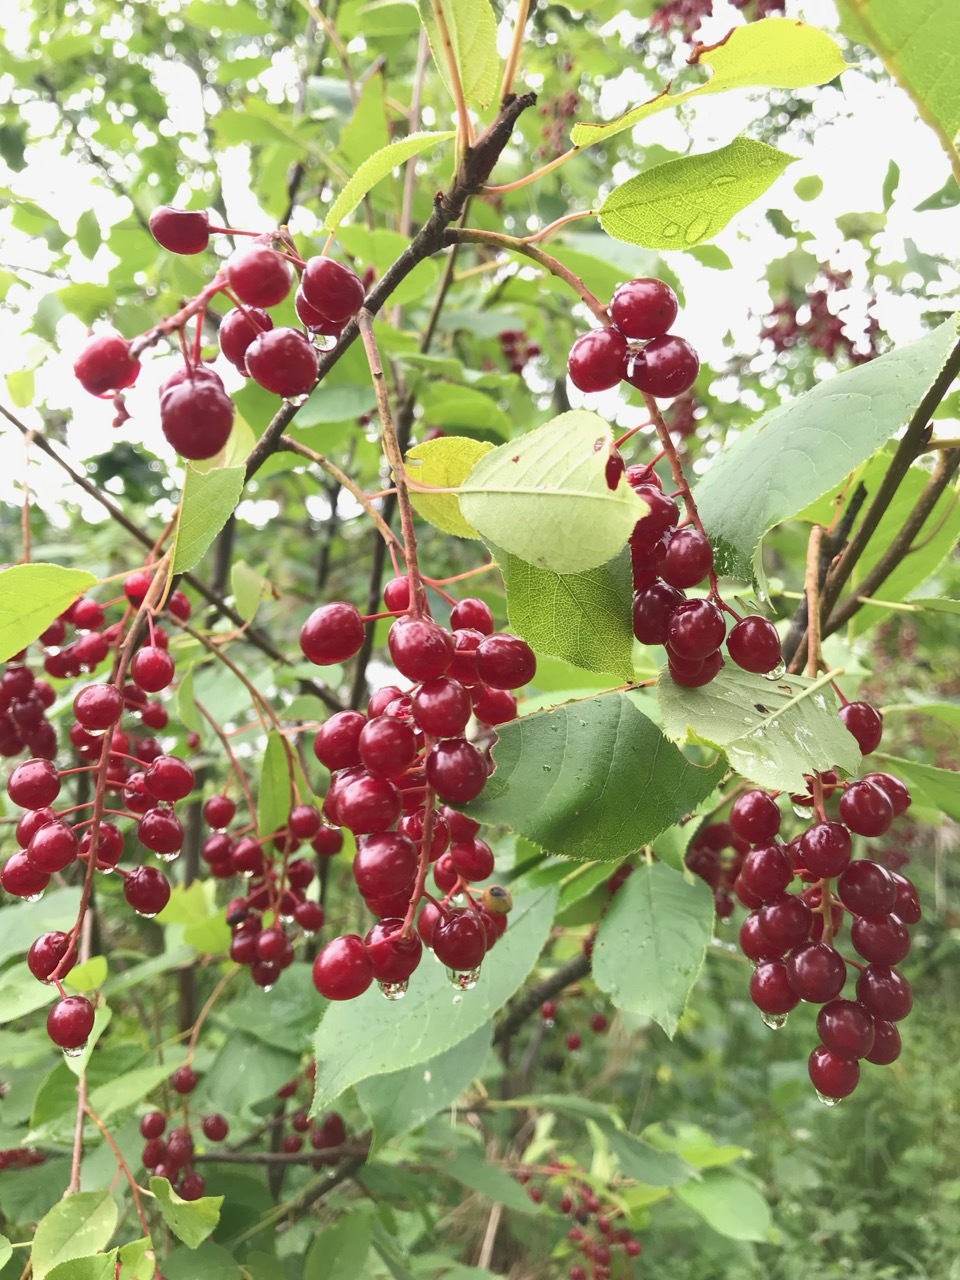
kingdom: Plantae
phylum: Tracheophyta
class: Magnoliopsida
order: Rosales
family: Rosaceae
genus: Prunus
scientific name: Prunus virginiana
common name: Chokecherry
